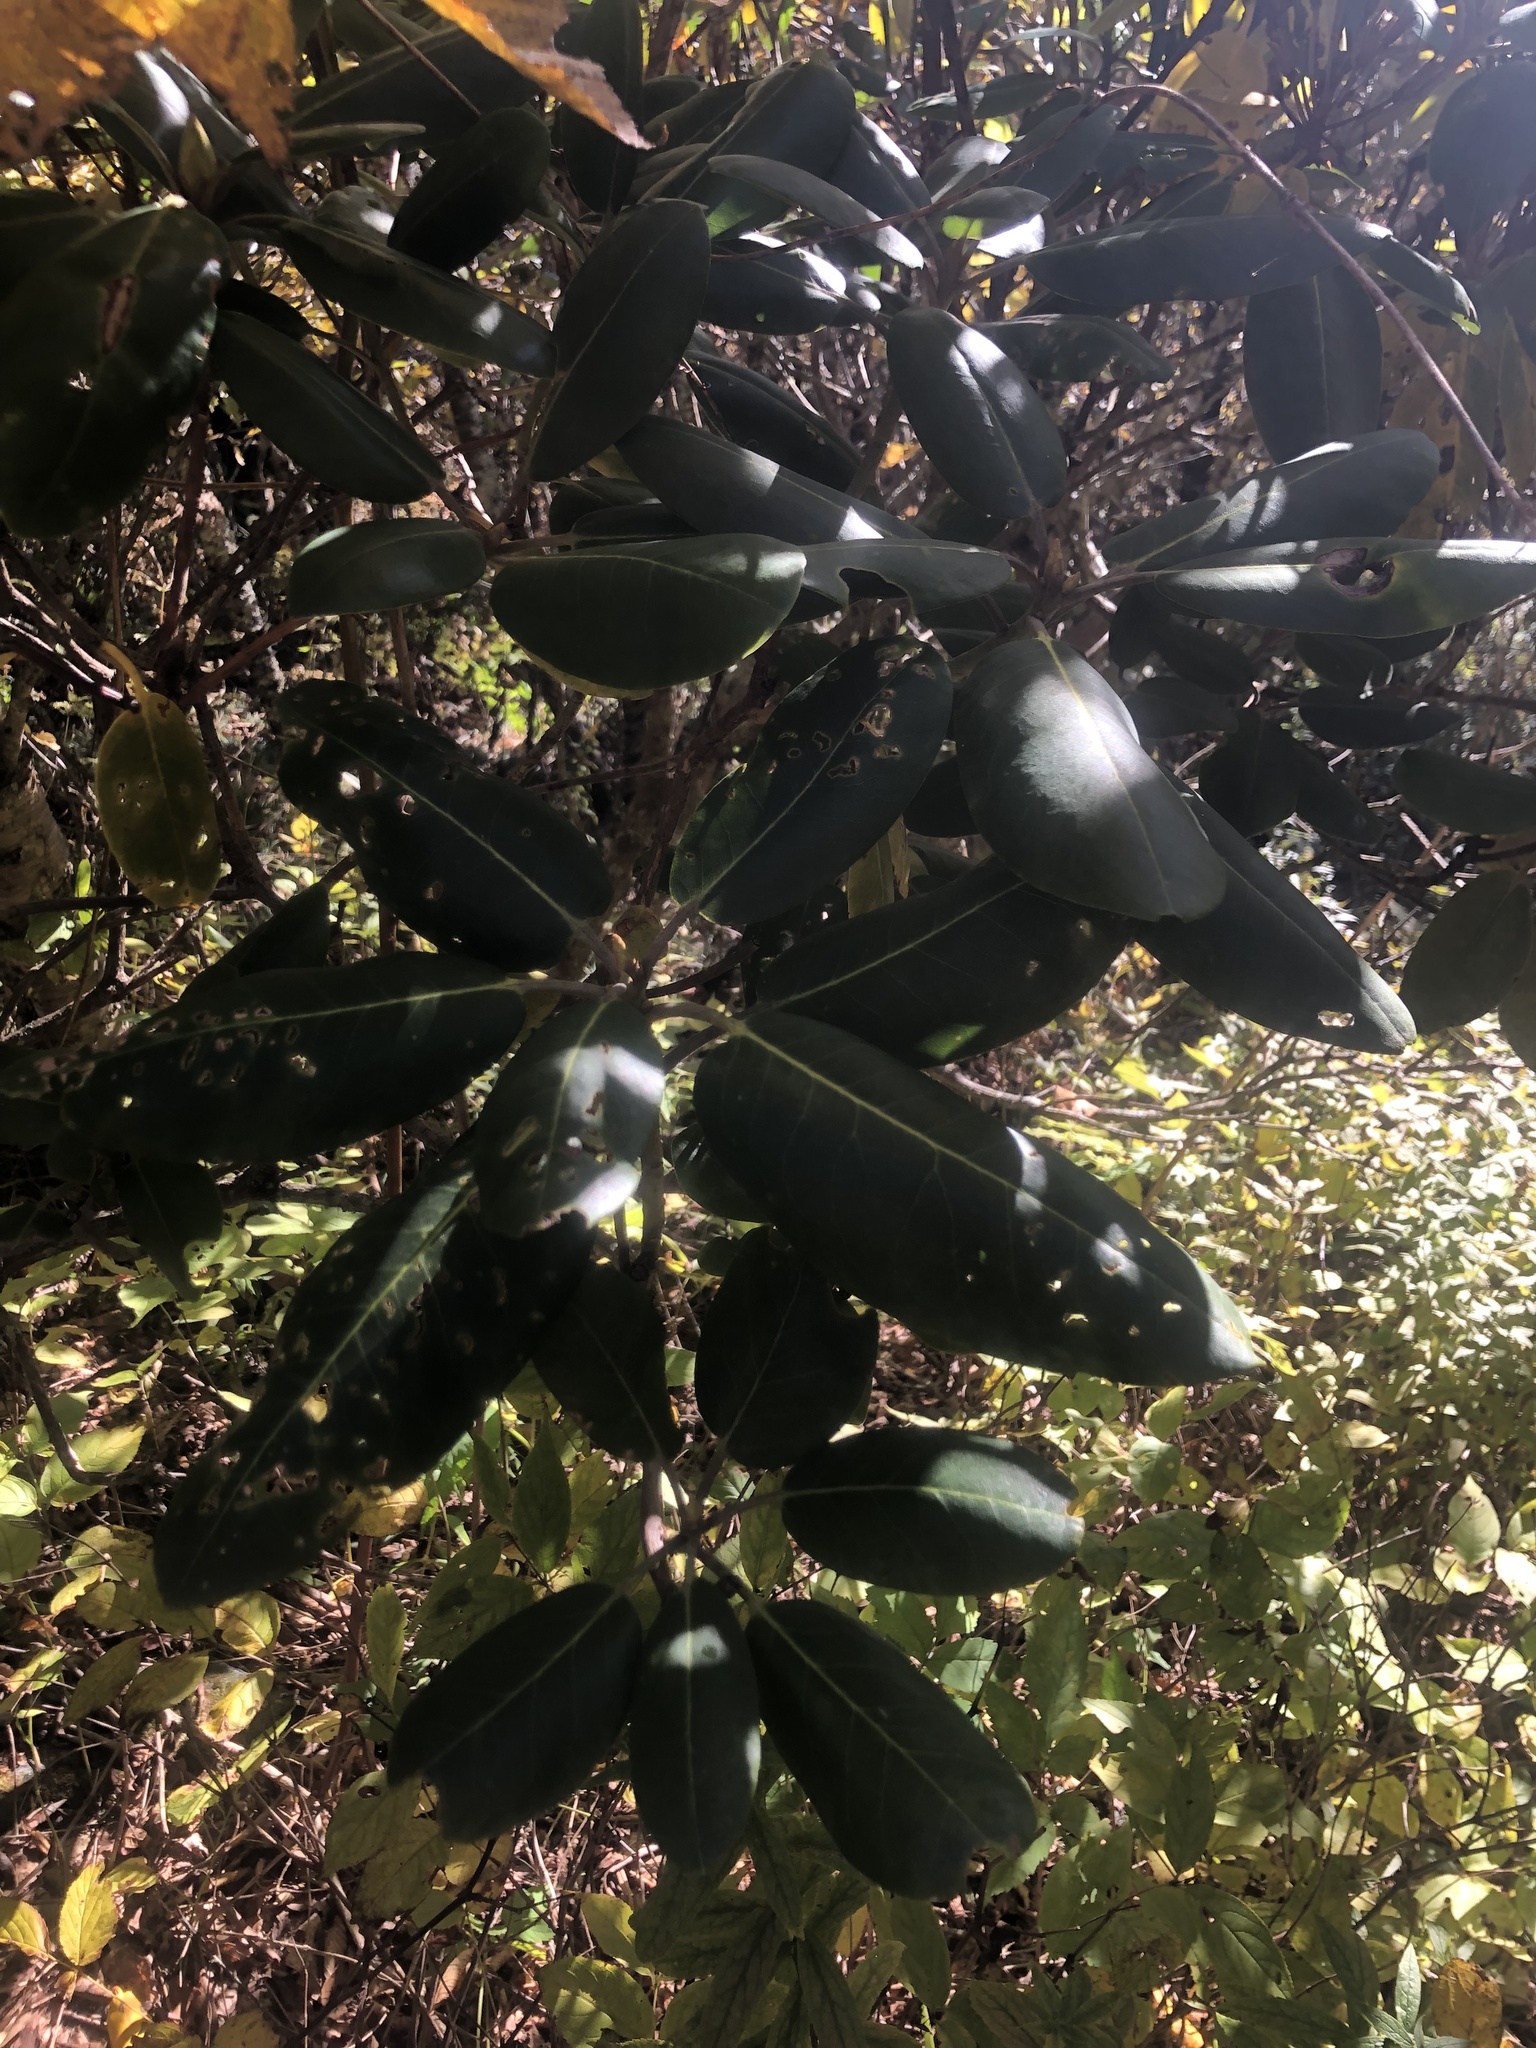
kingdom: Plantae
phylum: Tracheophyta
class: Magnoliopsida
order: Ericales
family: Ericaceae
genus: Rhododendron
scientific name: Rhododendron catawbiense
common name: Catawba rhododendron
